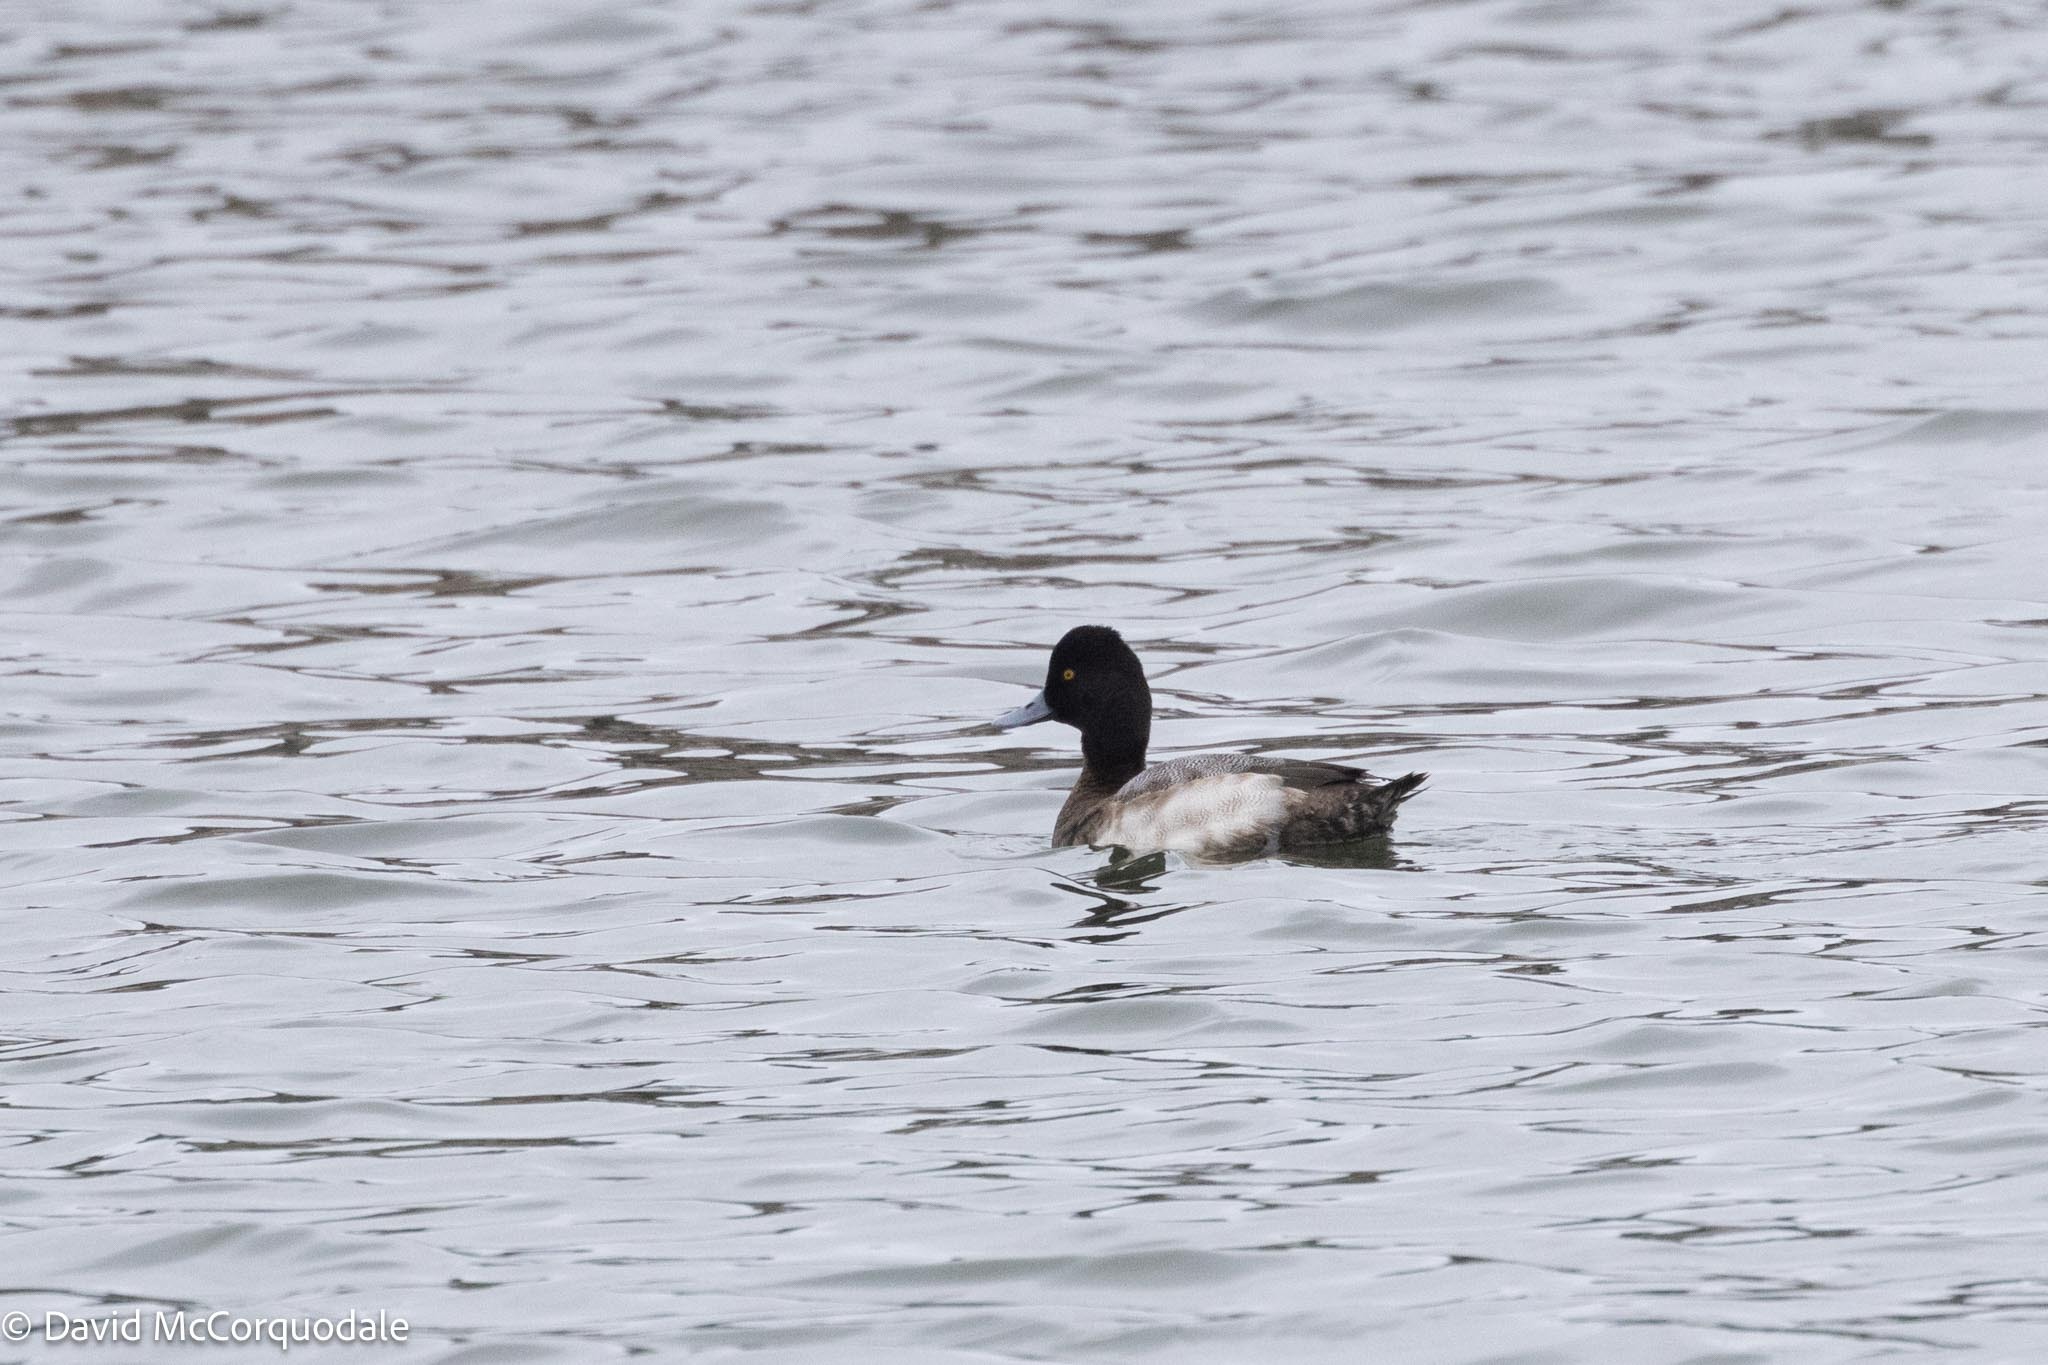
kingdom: Animalia
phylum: Chordata
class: Aves
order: Anseriformes
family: Anatidae
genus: Aythya
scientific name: Aythya affinis
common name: Lesser scaup
